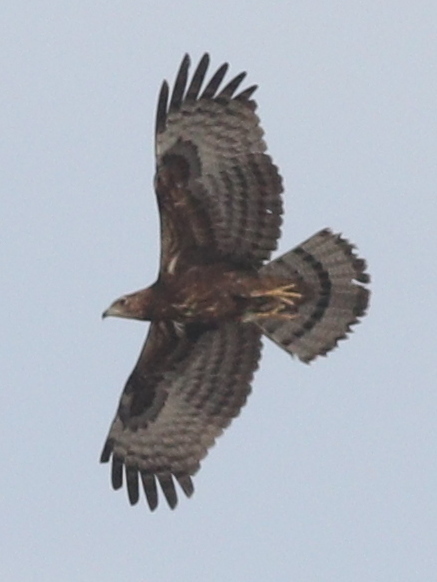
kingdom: Animalia
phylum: Chordata
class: Aves
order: Accipitriformes
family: Accipitridae
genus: Pernis
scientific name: Pernis ptilorhynchus
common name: Crested honey buzzard
